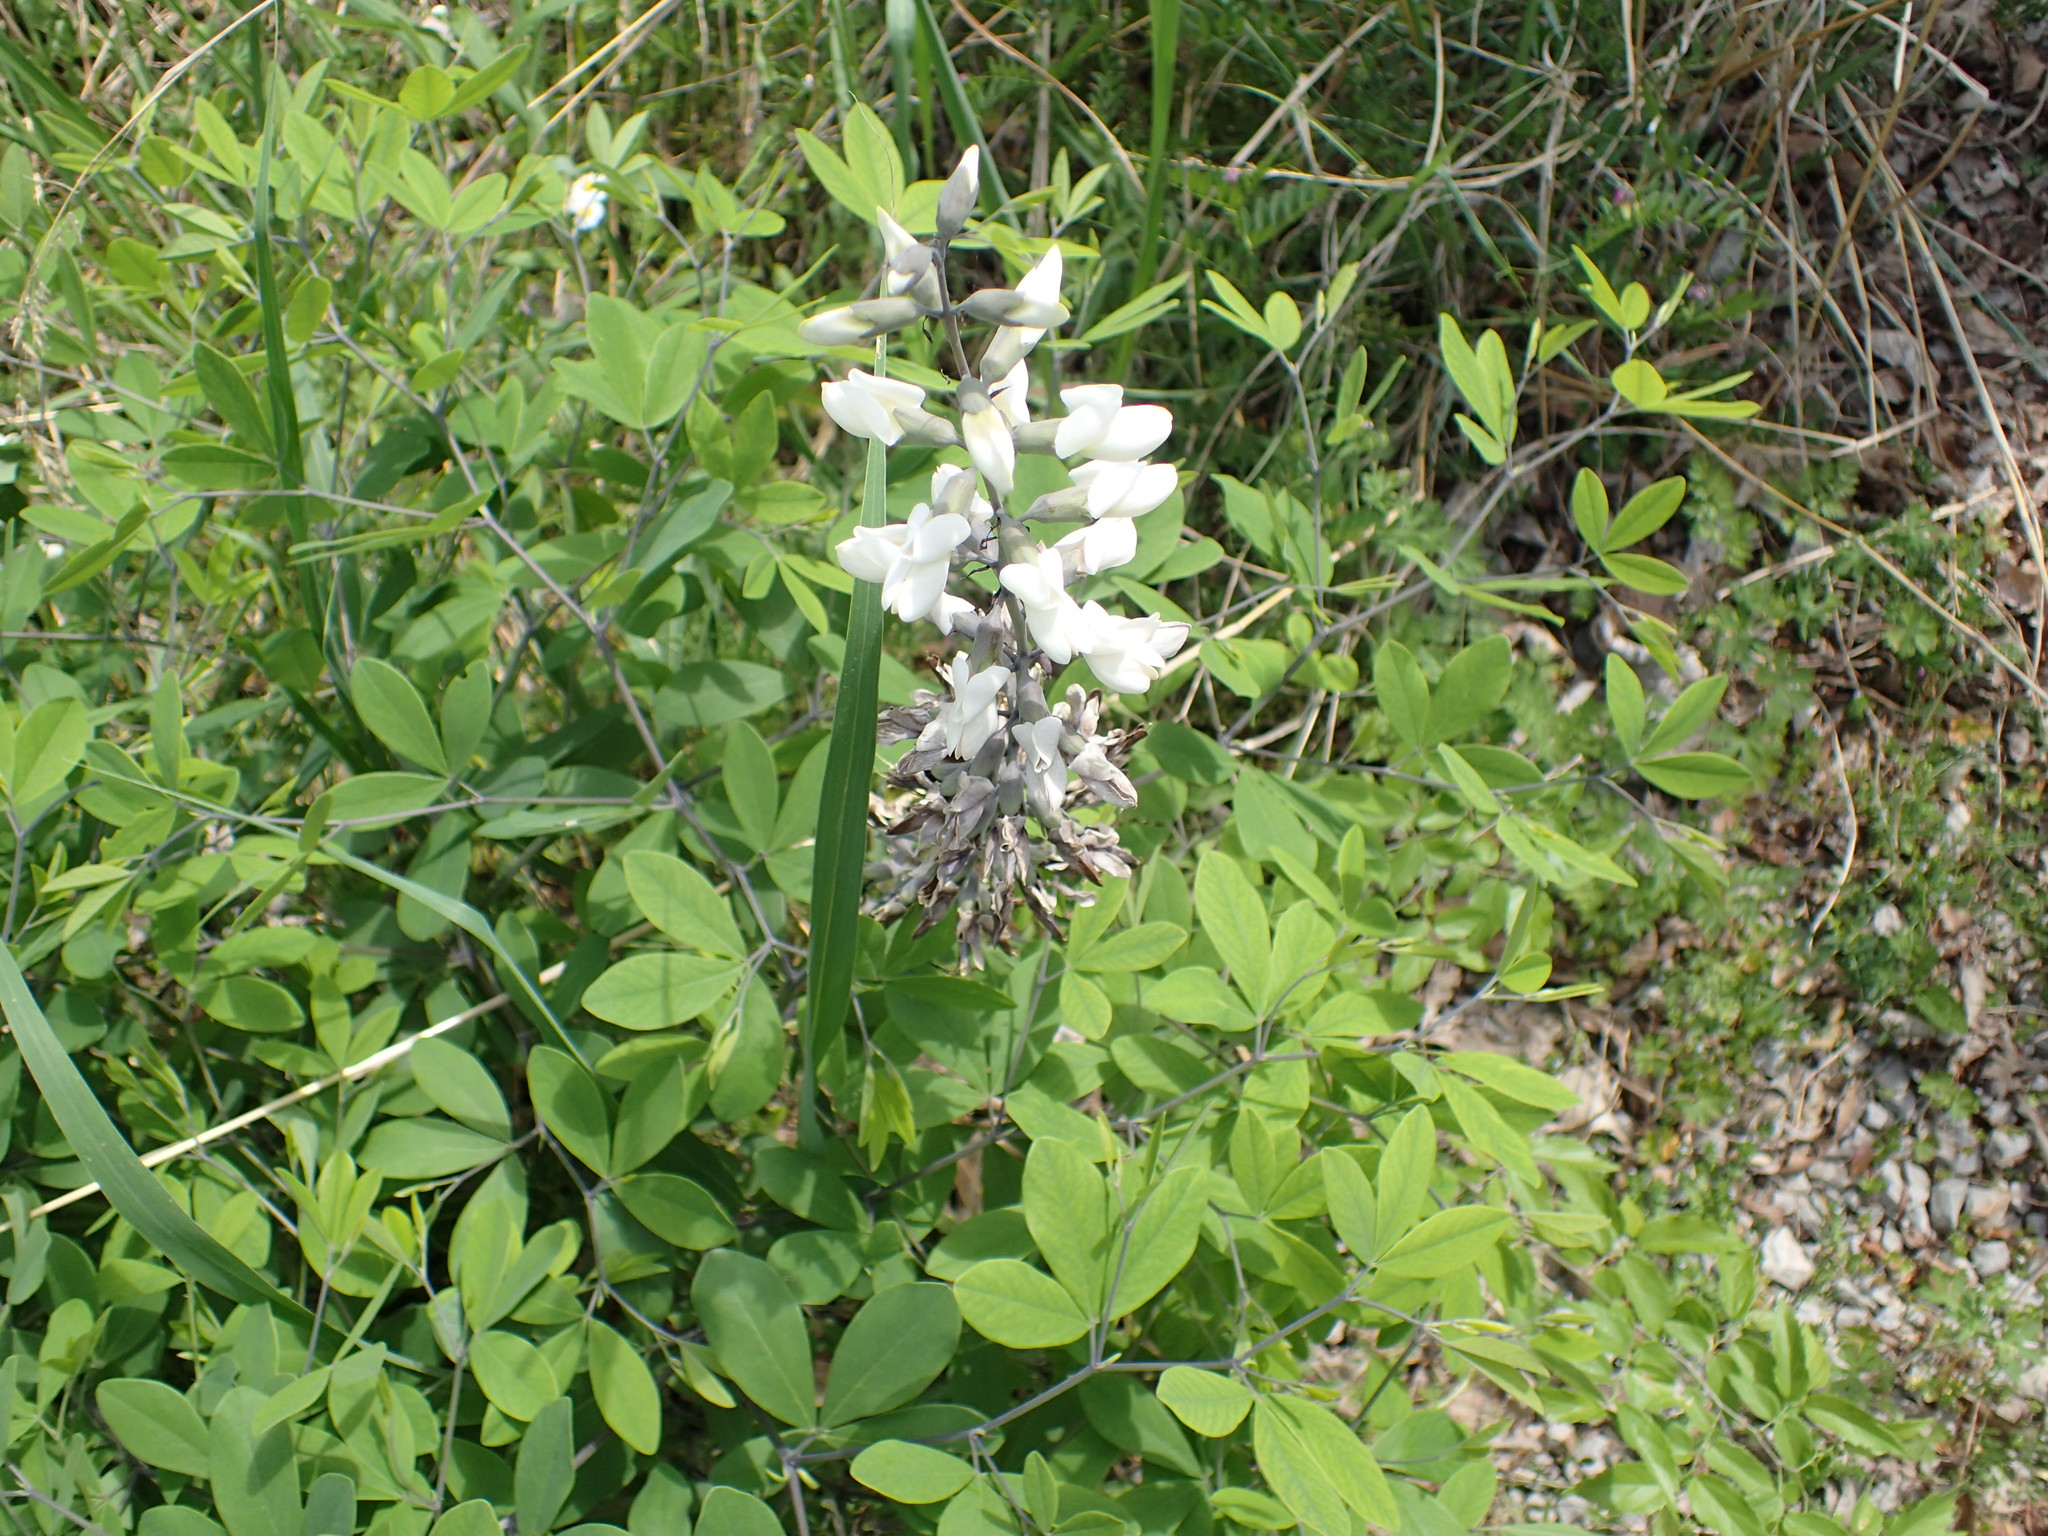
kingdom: Plantae
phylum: Tracheophyta
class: Magnoliopsida
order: Fabales
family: Fabaceae
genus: Baptisia
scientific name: Baptisia alba
